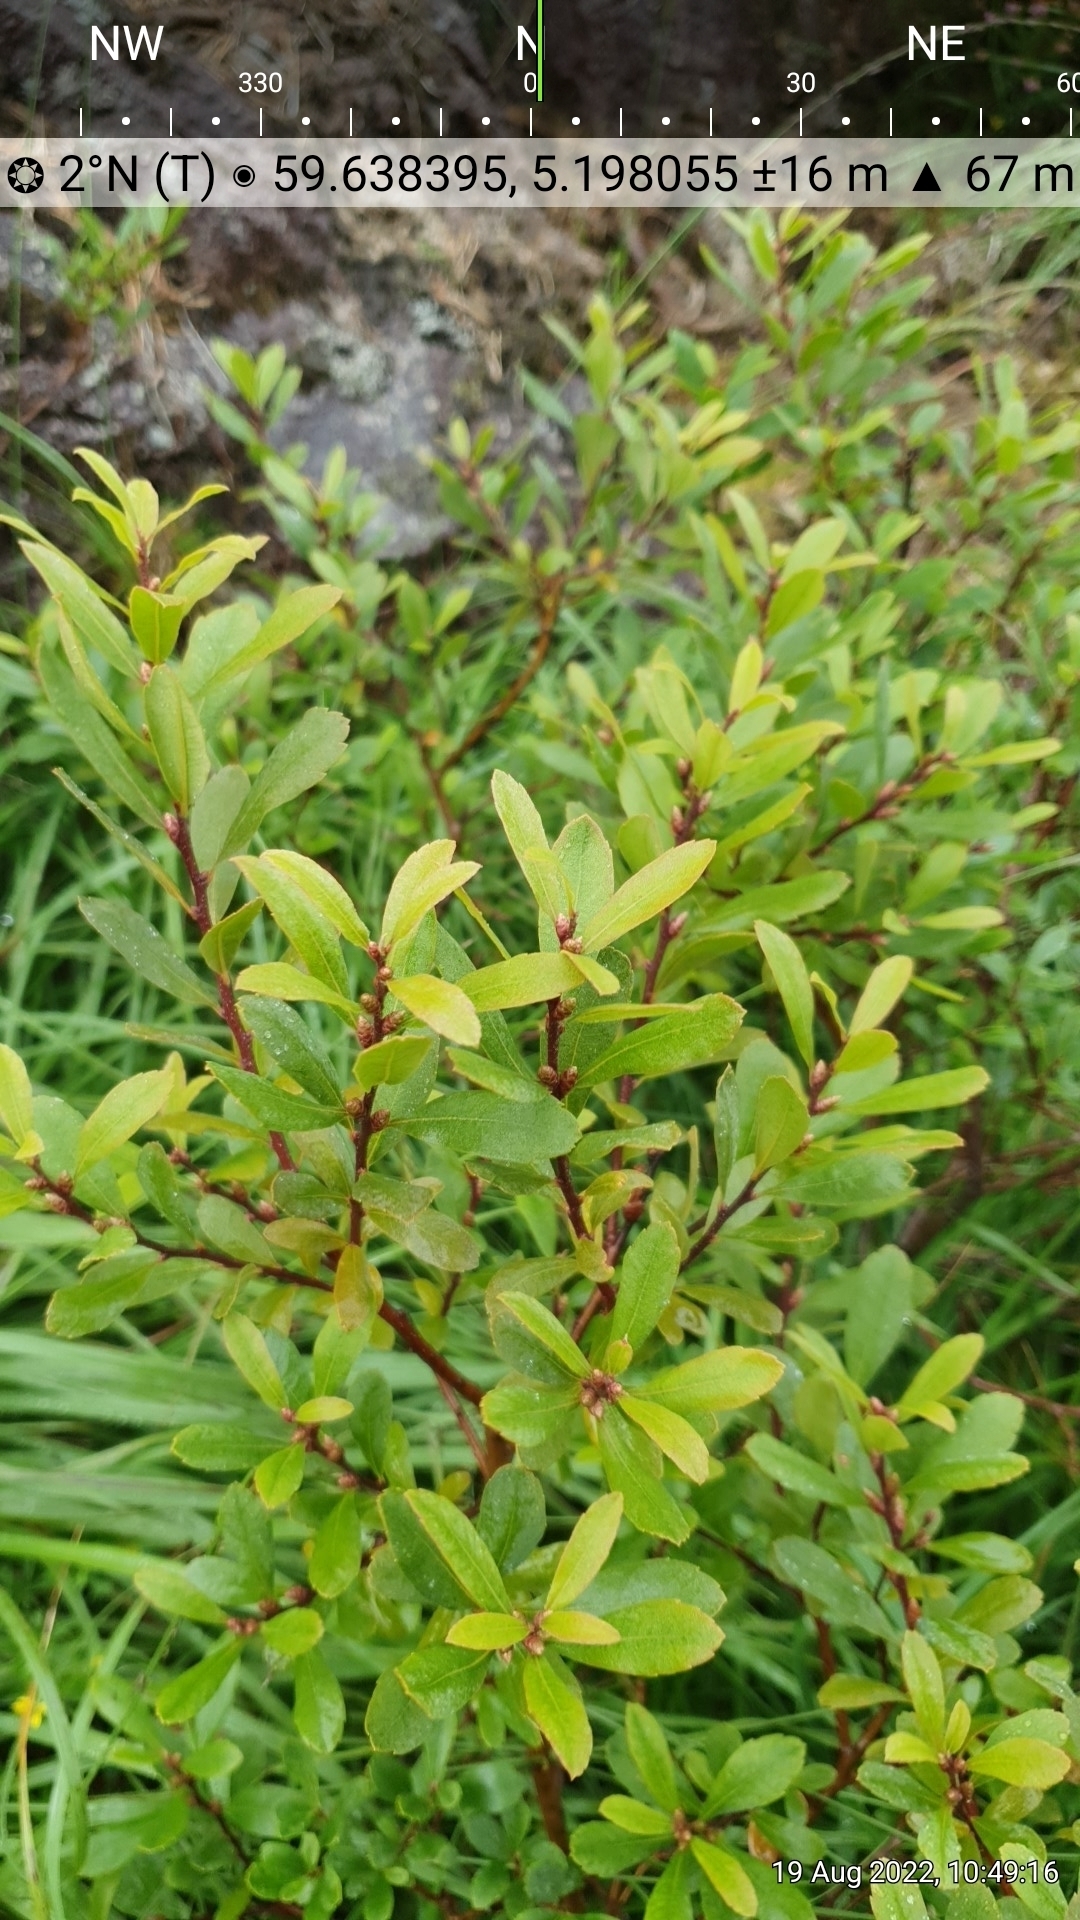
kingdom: Plantae
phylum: Tracheophyta
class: Magnoliopsida
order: Fagales
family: Myricaceae
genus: Myrica
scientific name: Myrica gale
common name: Sweet gale
